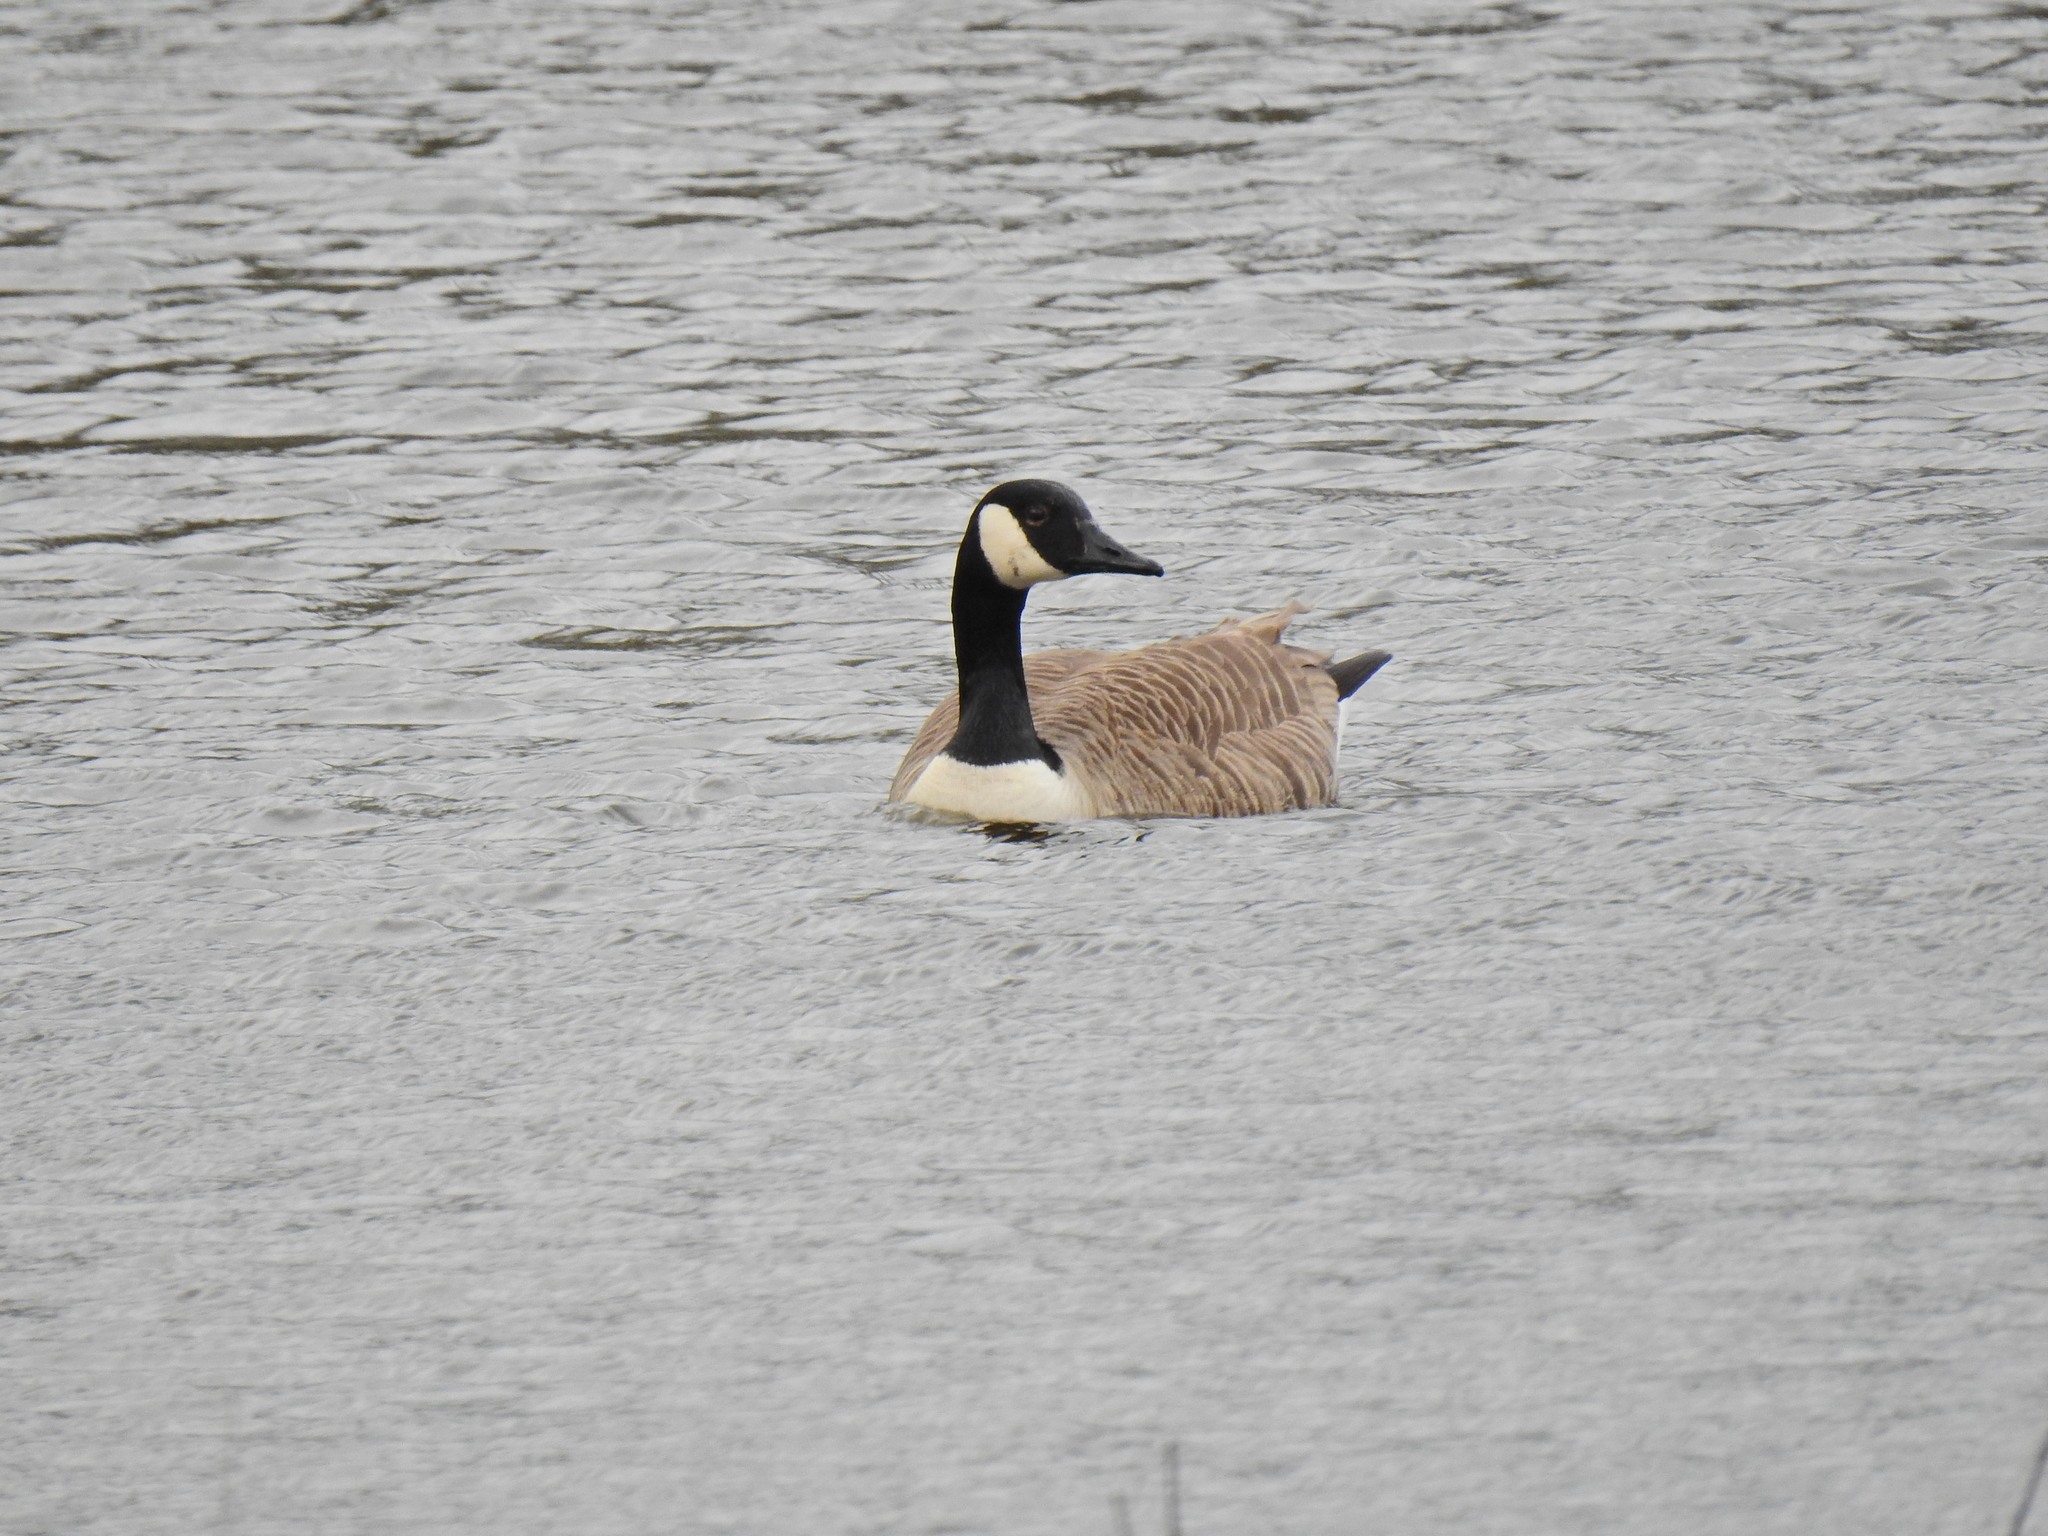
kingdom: Animalia
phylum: Chordata
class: Aves
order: Anseriformes
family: Anatidae
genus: Branta
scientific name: Branta canadensis
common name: Canada goose
